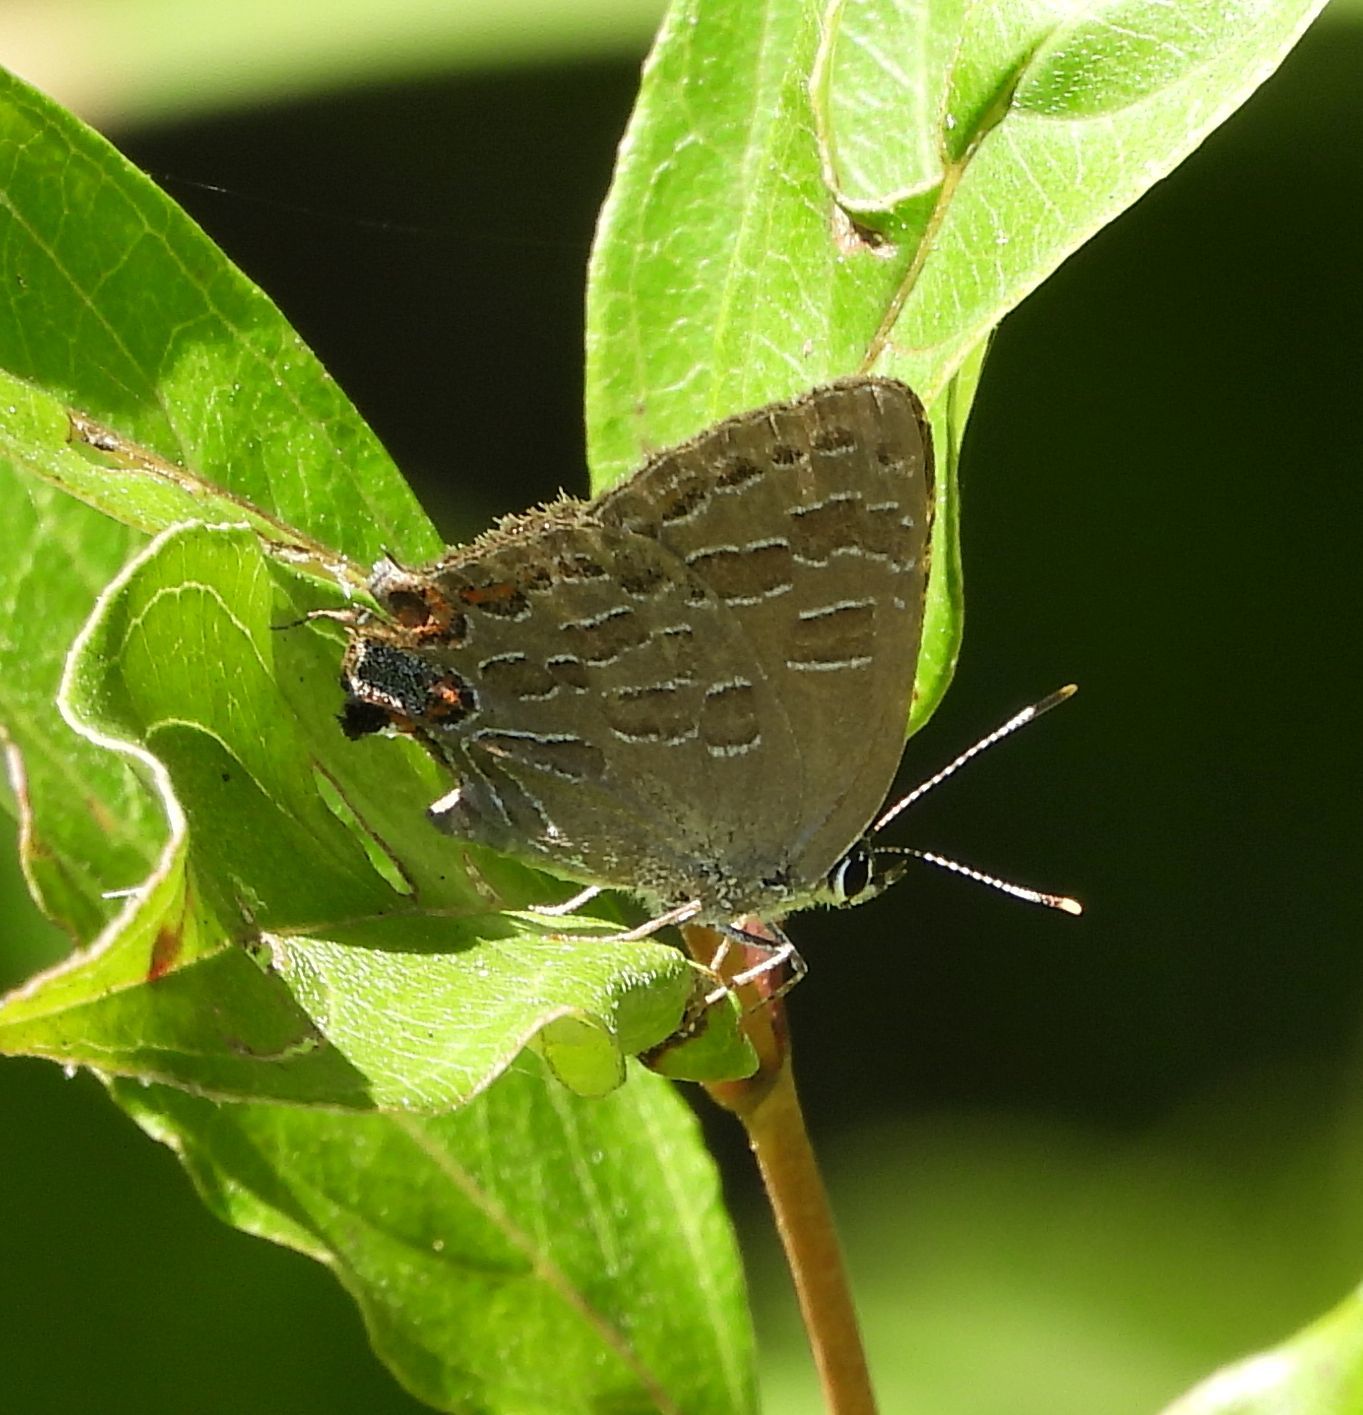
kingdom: Animalia
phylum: Arthropoda
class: Insecta
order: Lepidoptera
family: Lycaenidae
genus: Satyrium
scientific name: Satyrium liparops
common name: Striped hairstreak
